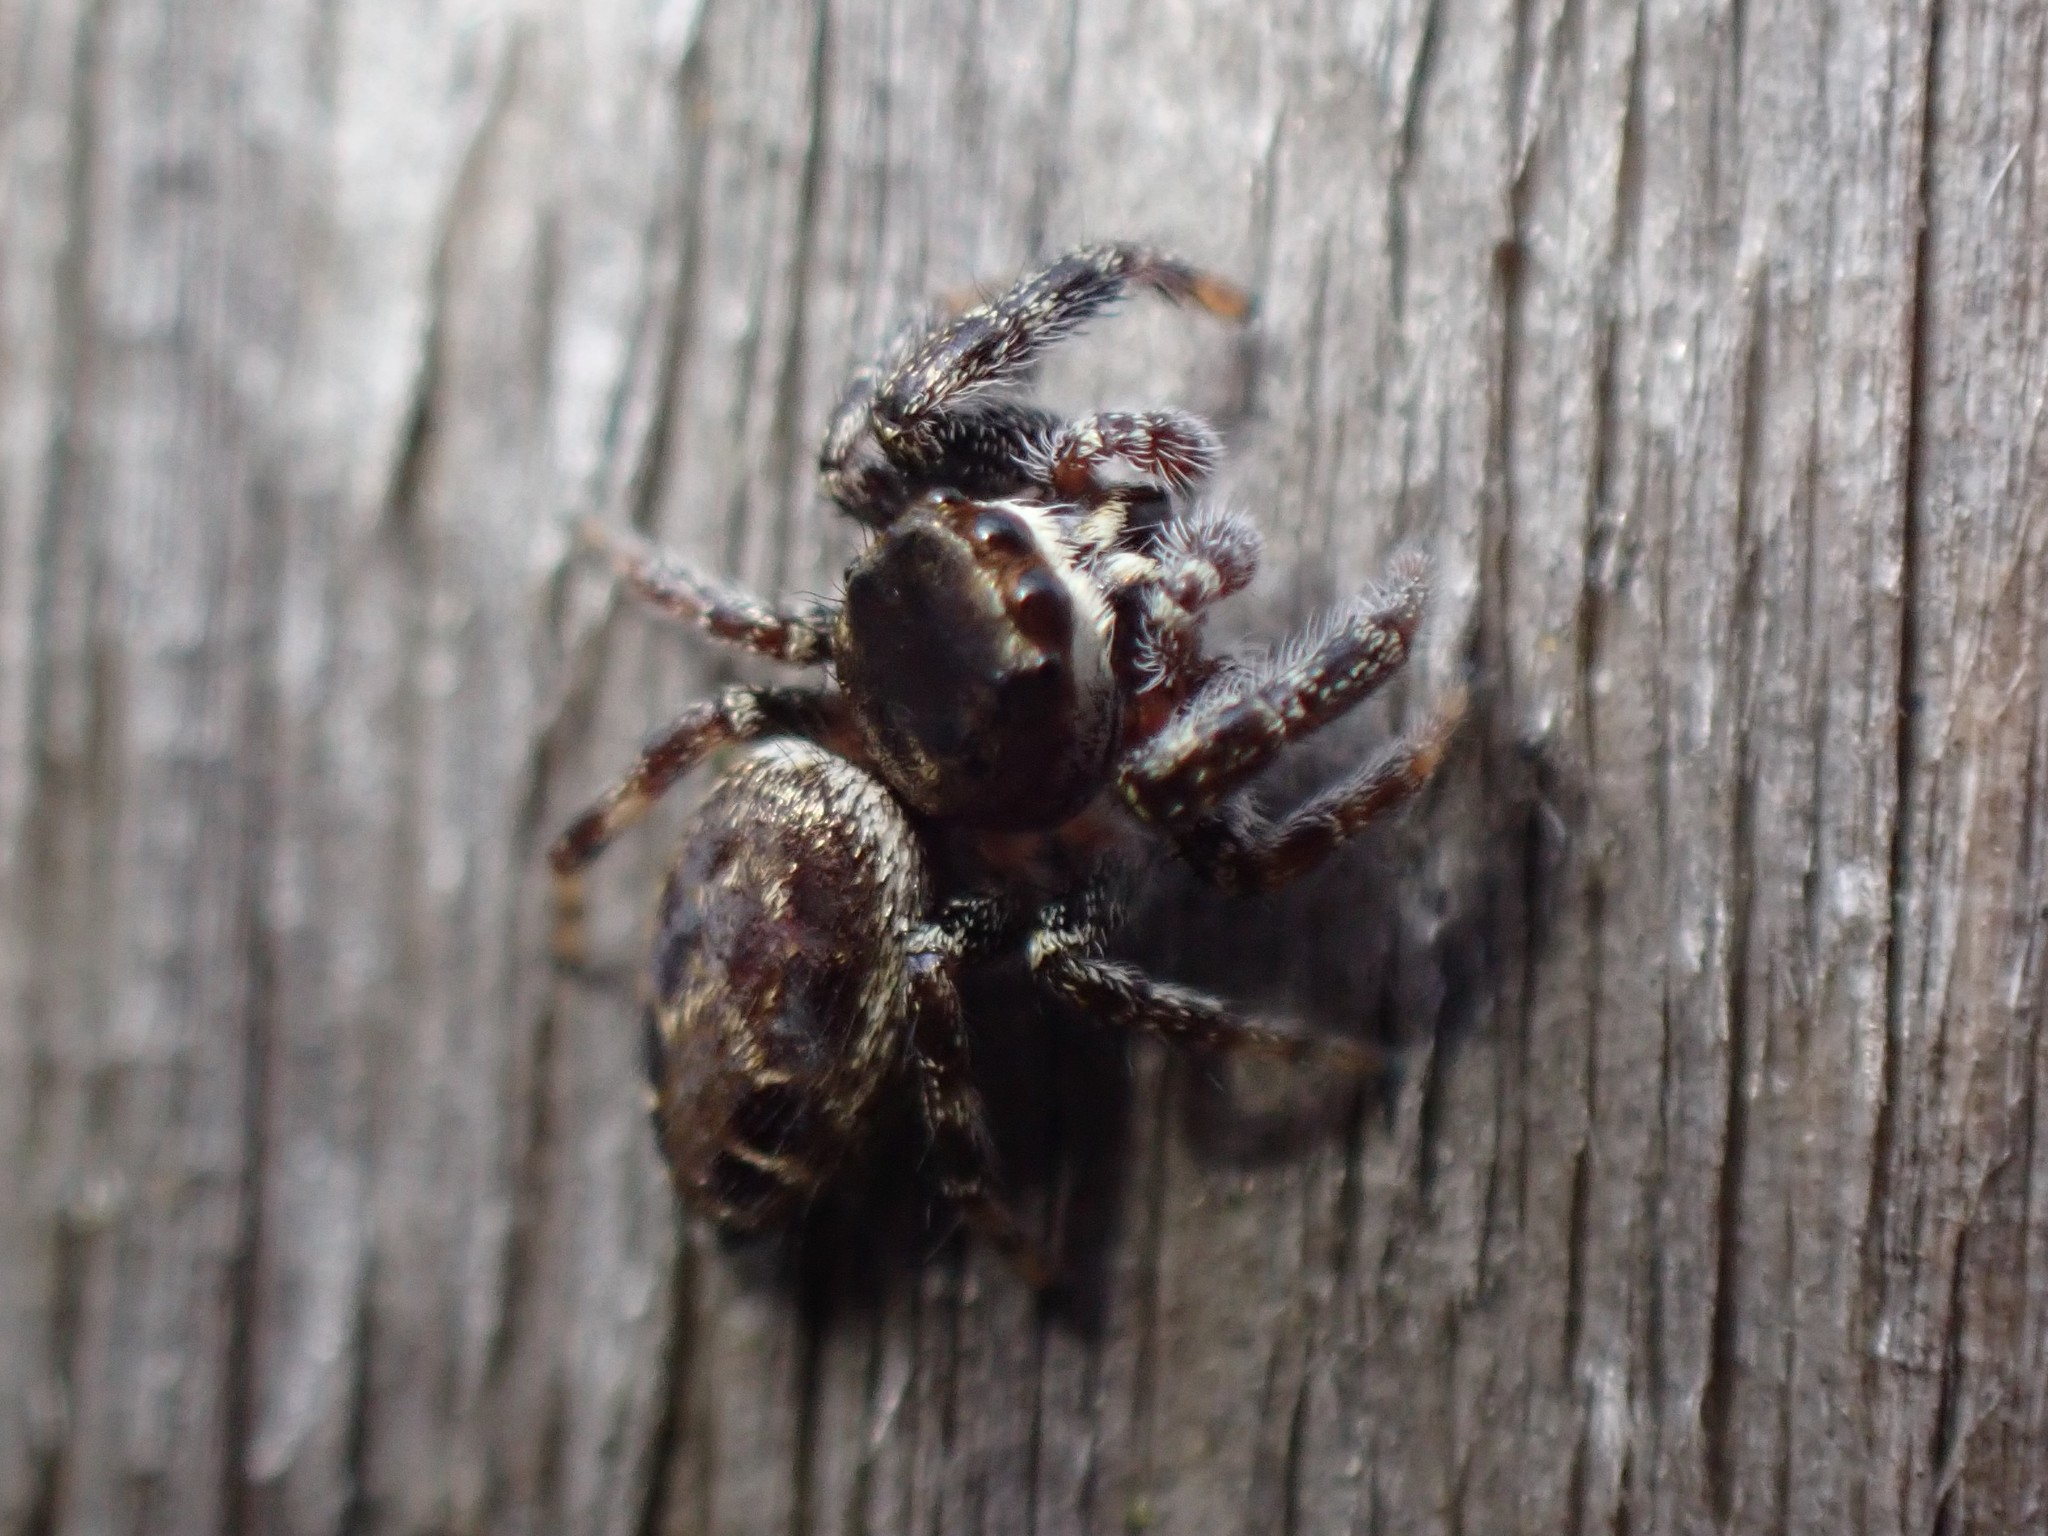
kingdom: Animalia
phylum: Arthropoda
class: Arachnida
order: Araneae
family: Salticidae
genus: Metaphidippus
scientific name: Metaphidippus manni
